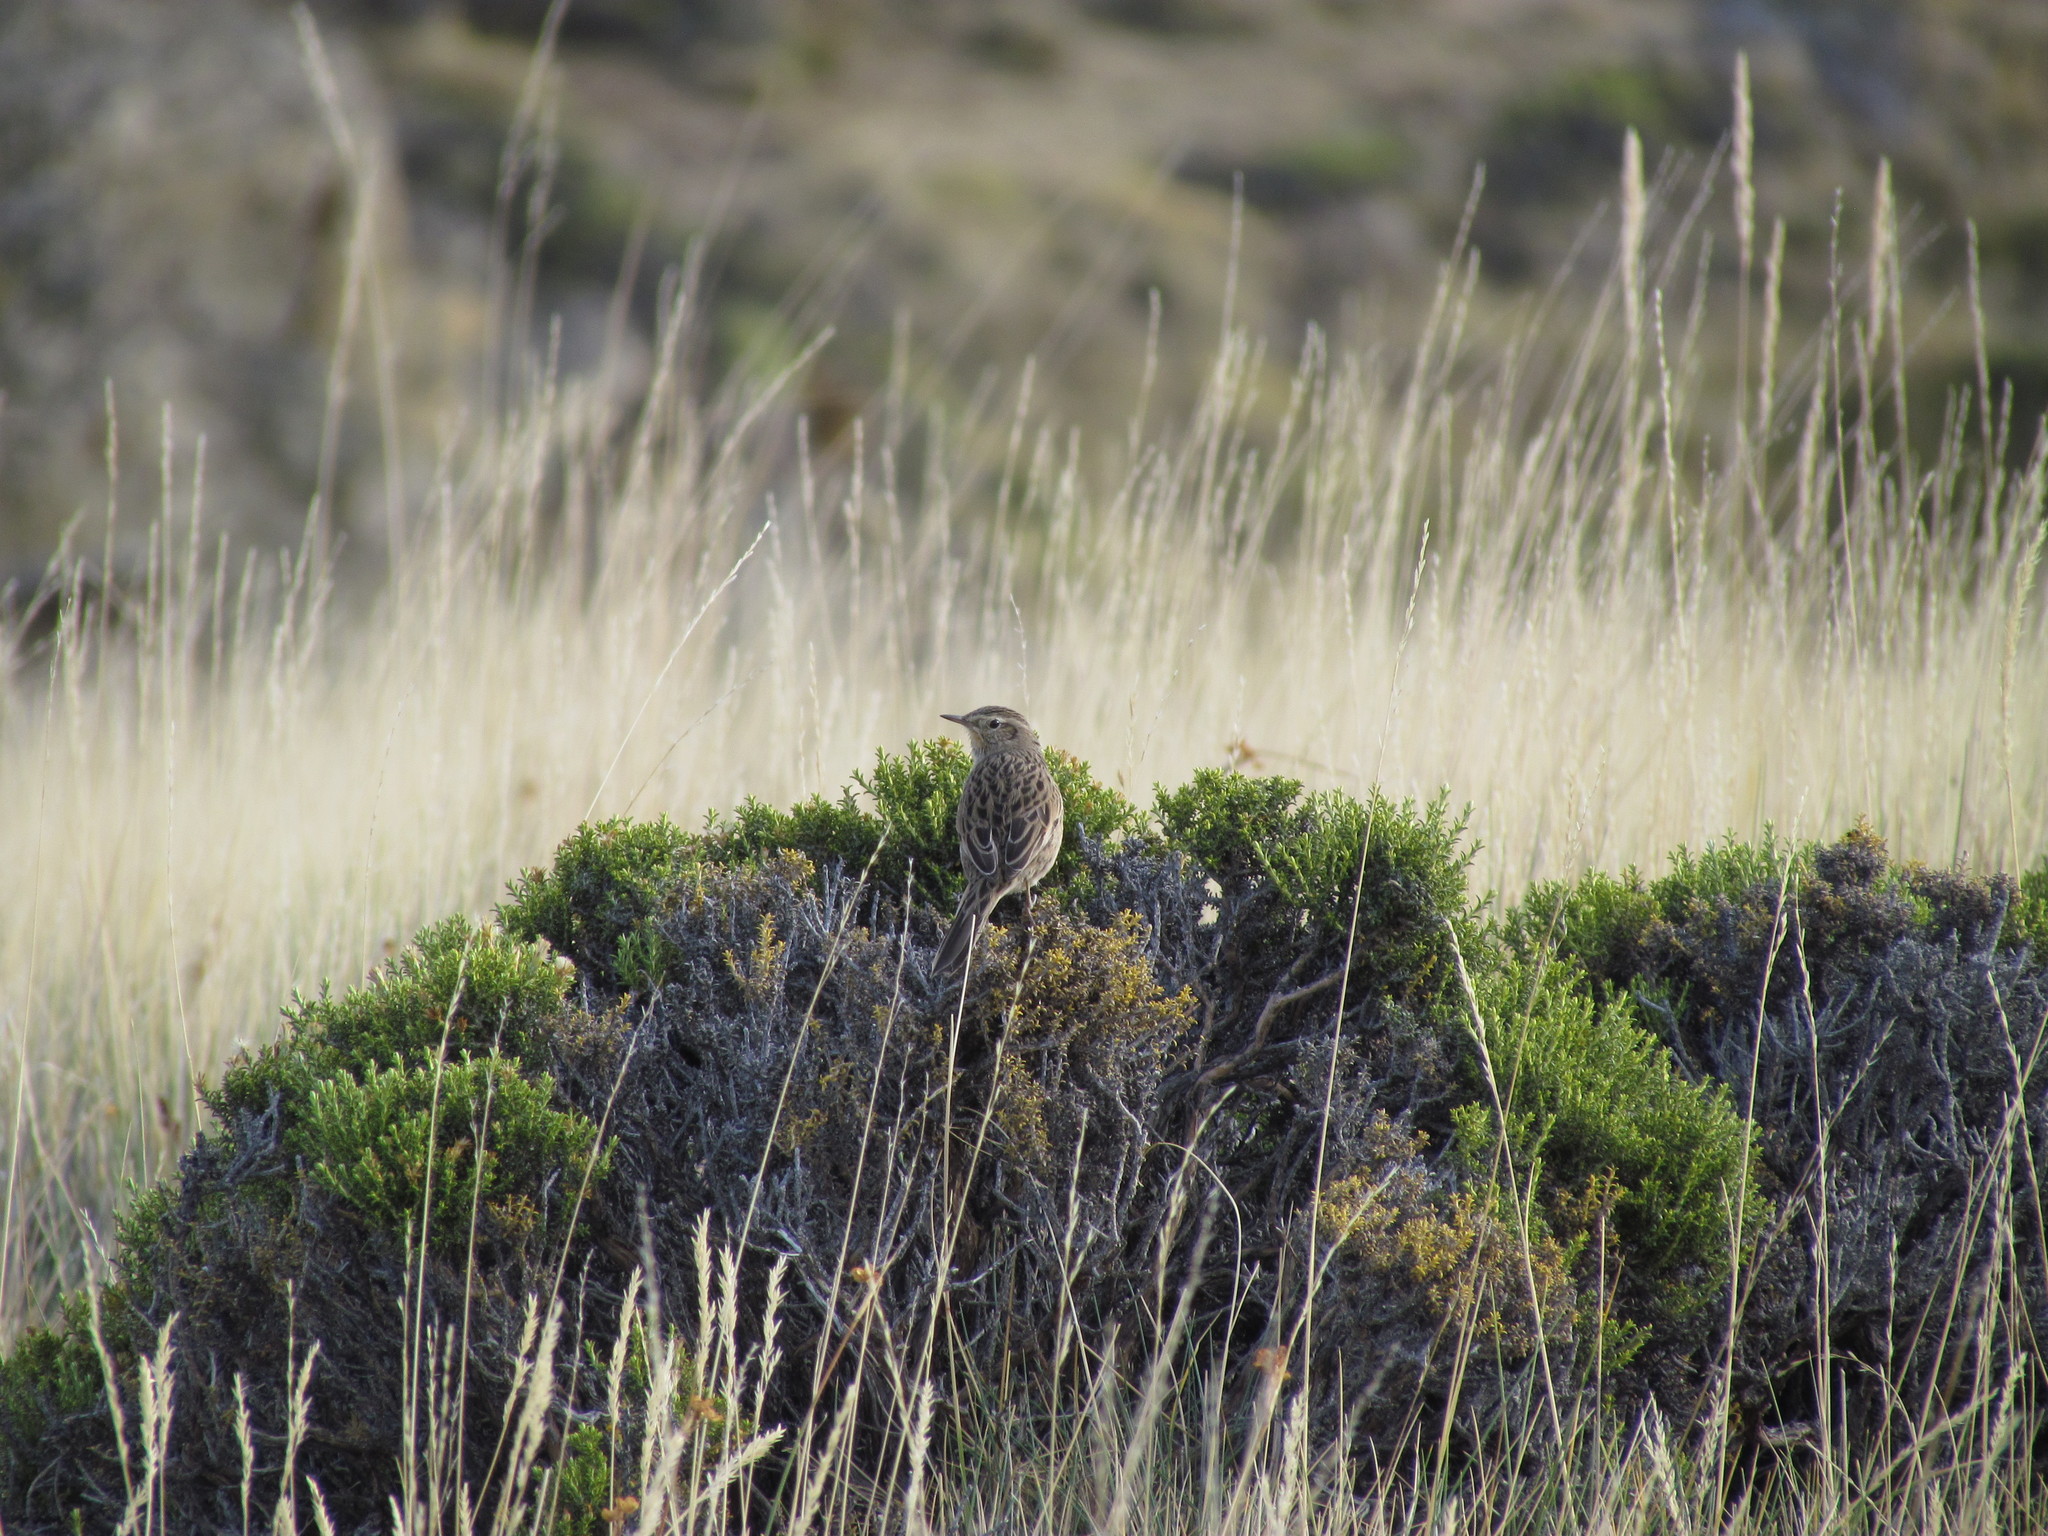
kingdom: Animalia
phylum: Chordata
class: Aves
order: Passeriformes
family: Furnariidae
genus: Asthenes
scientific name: Asthenes anthoides
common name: Austral canastero
